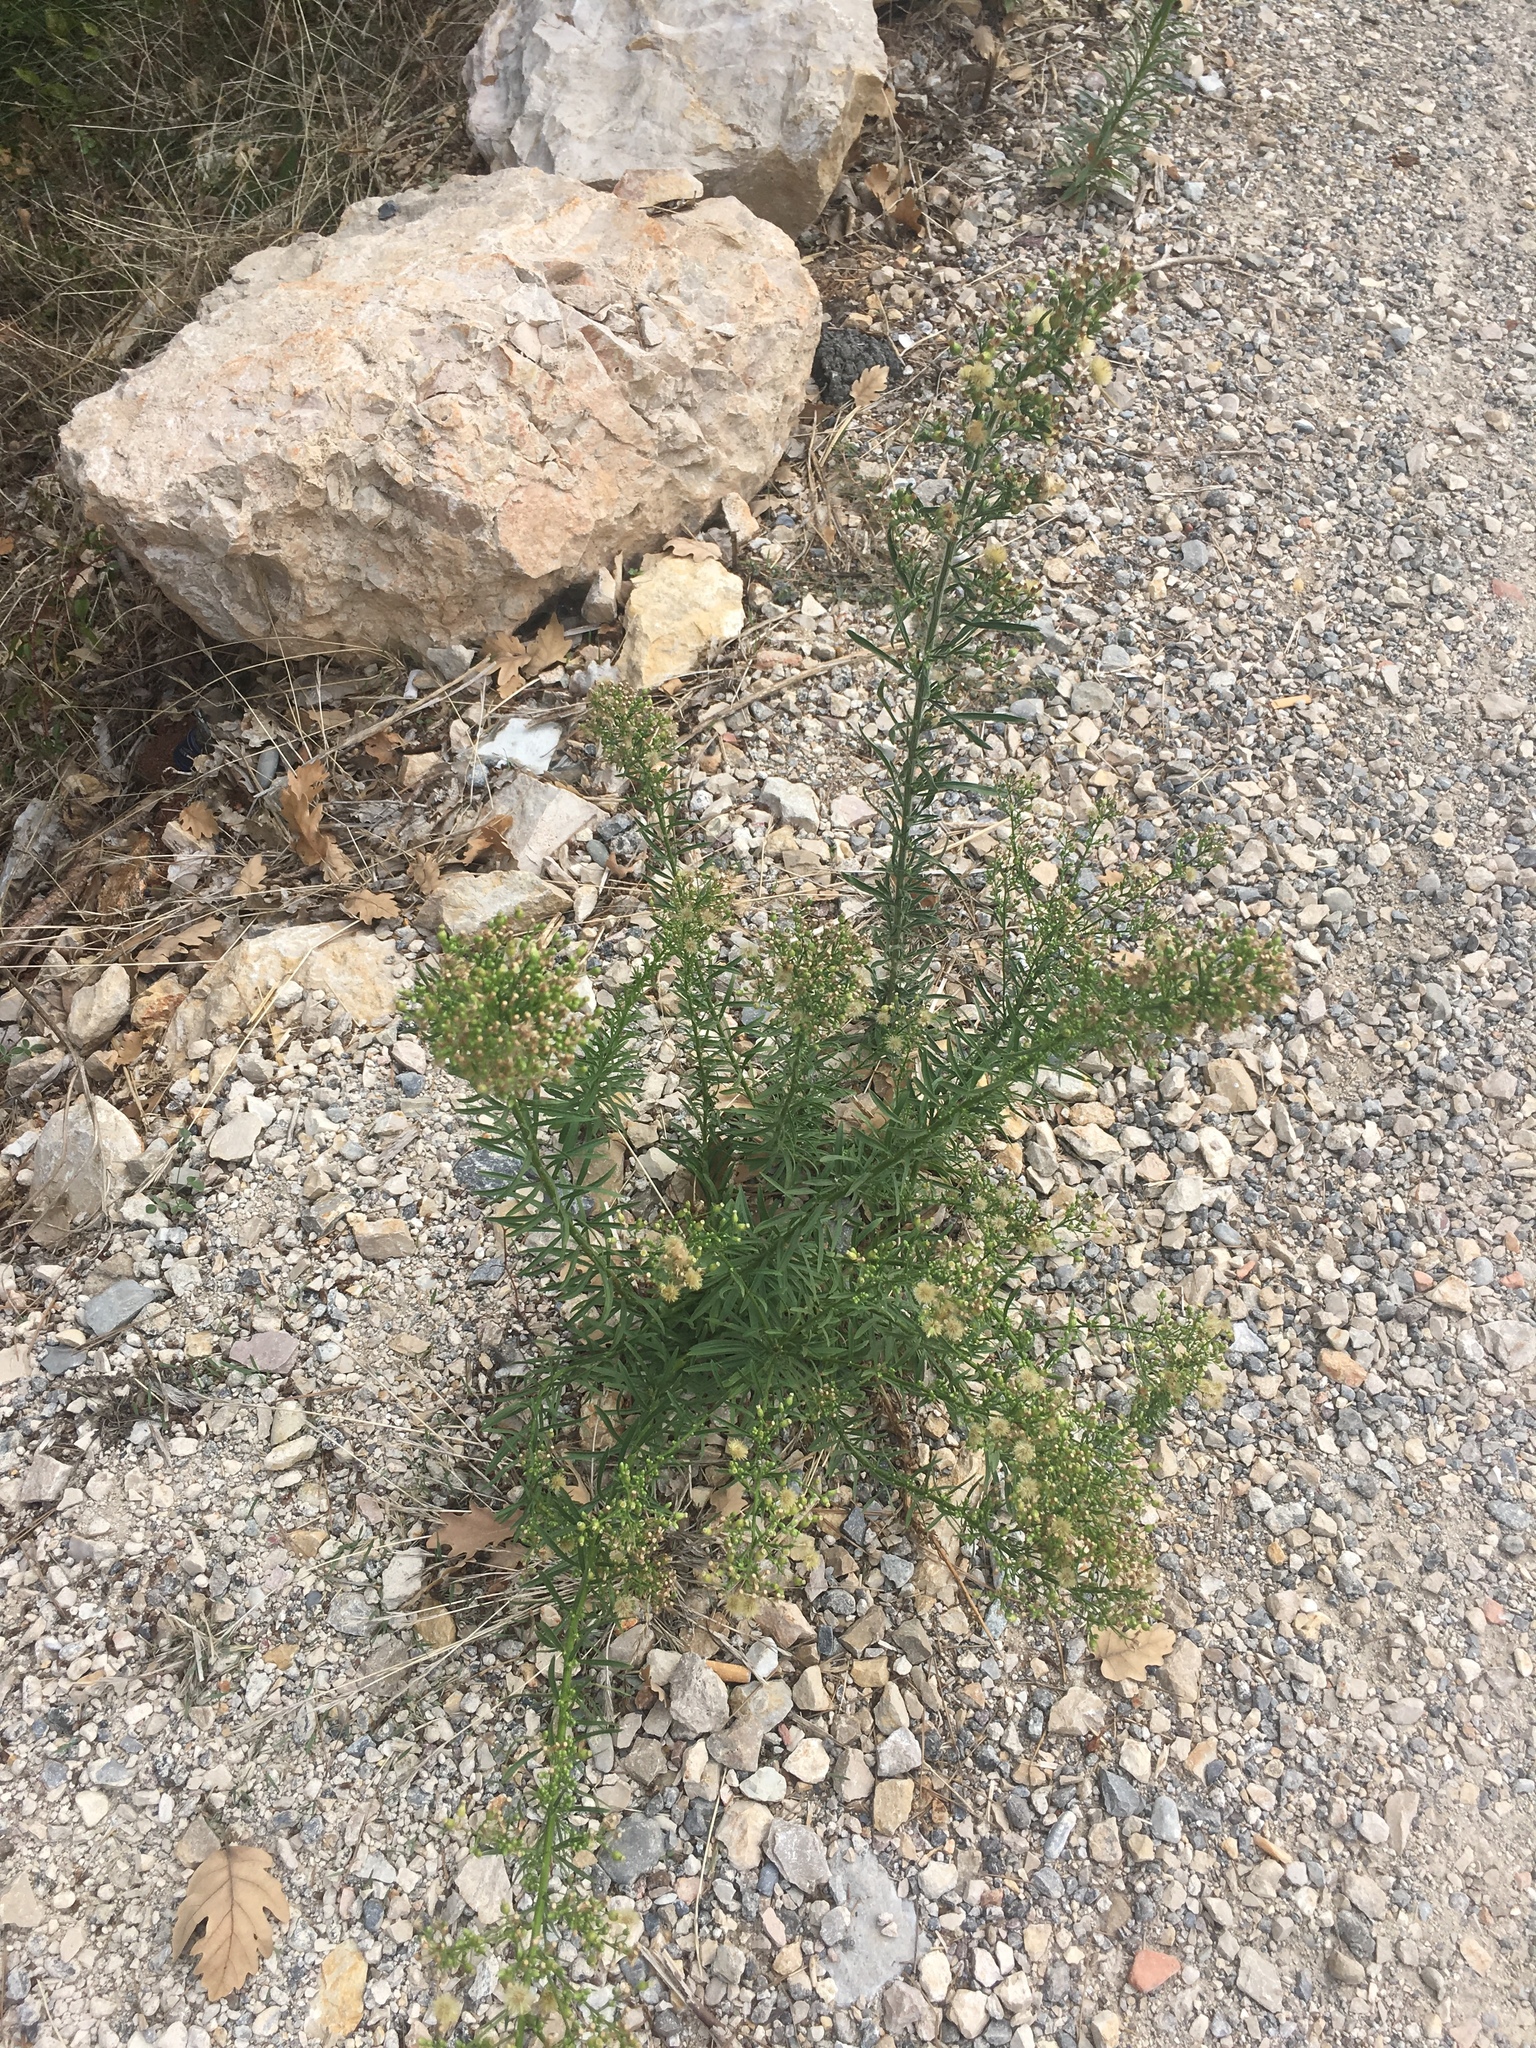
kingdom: Plantae
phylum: Tracheophyta
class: Magnoliopsida
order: Asterales
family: Asteraceae
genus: Erigeron
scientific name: Erigeron canadensis
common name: Canadian fleabane
